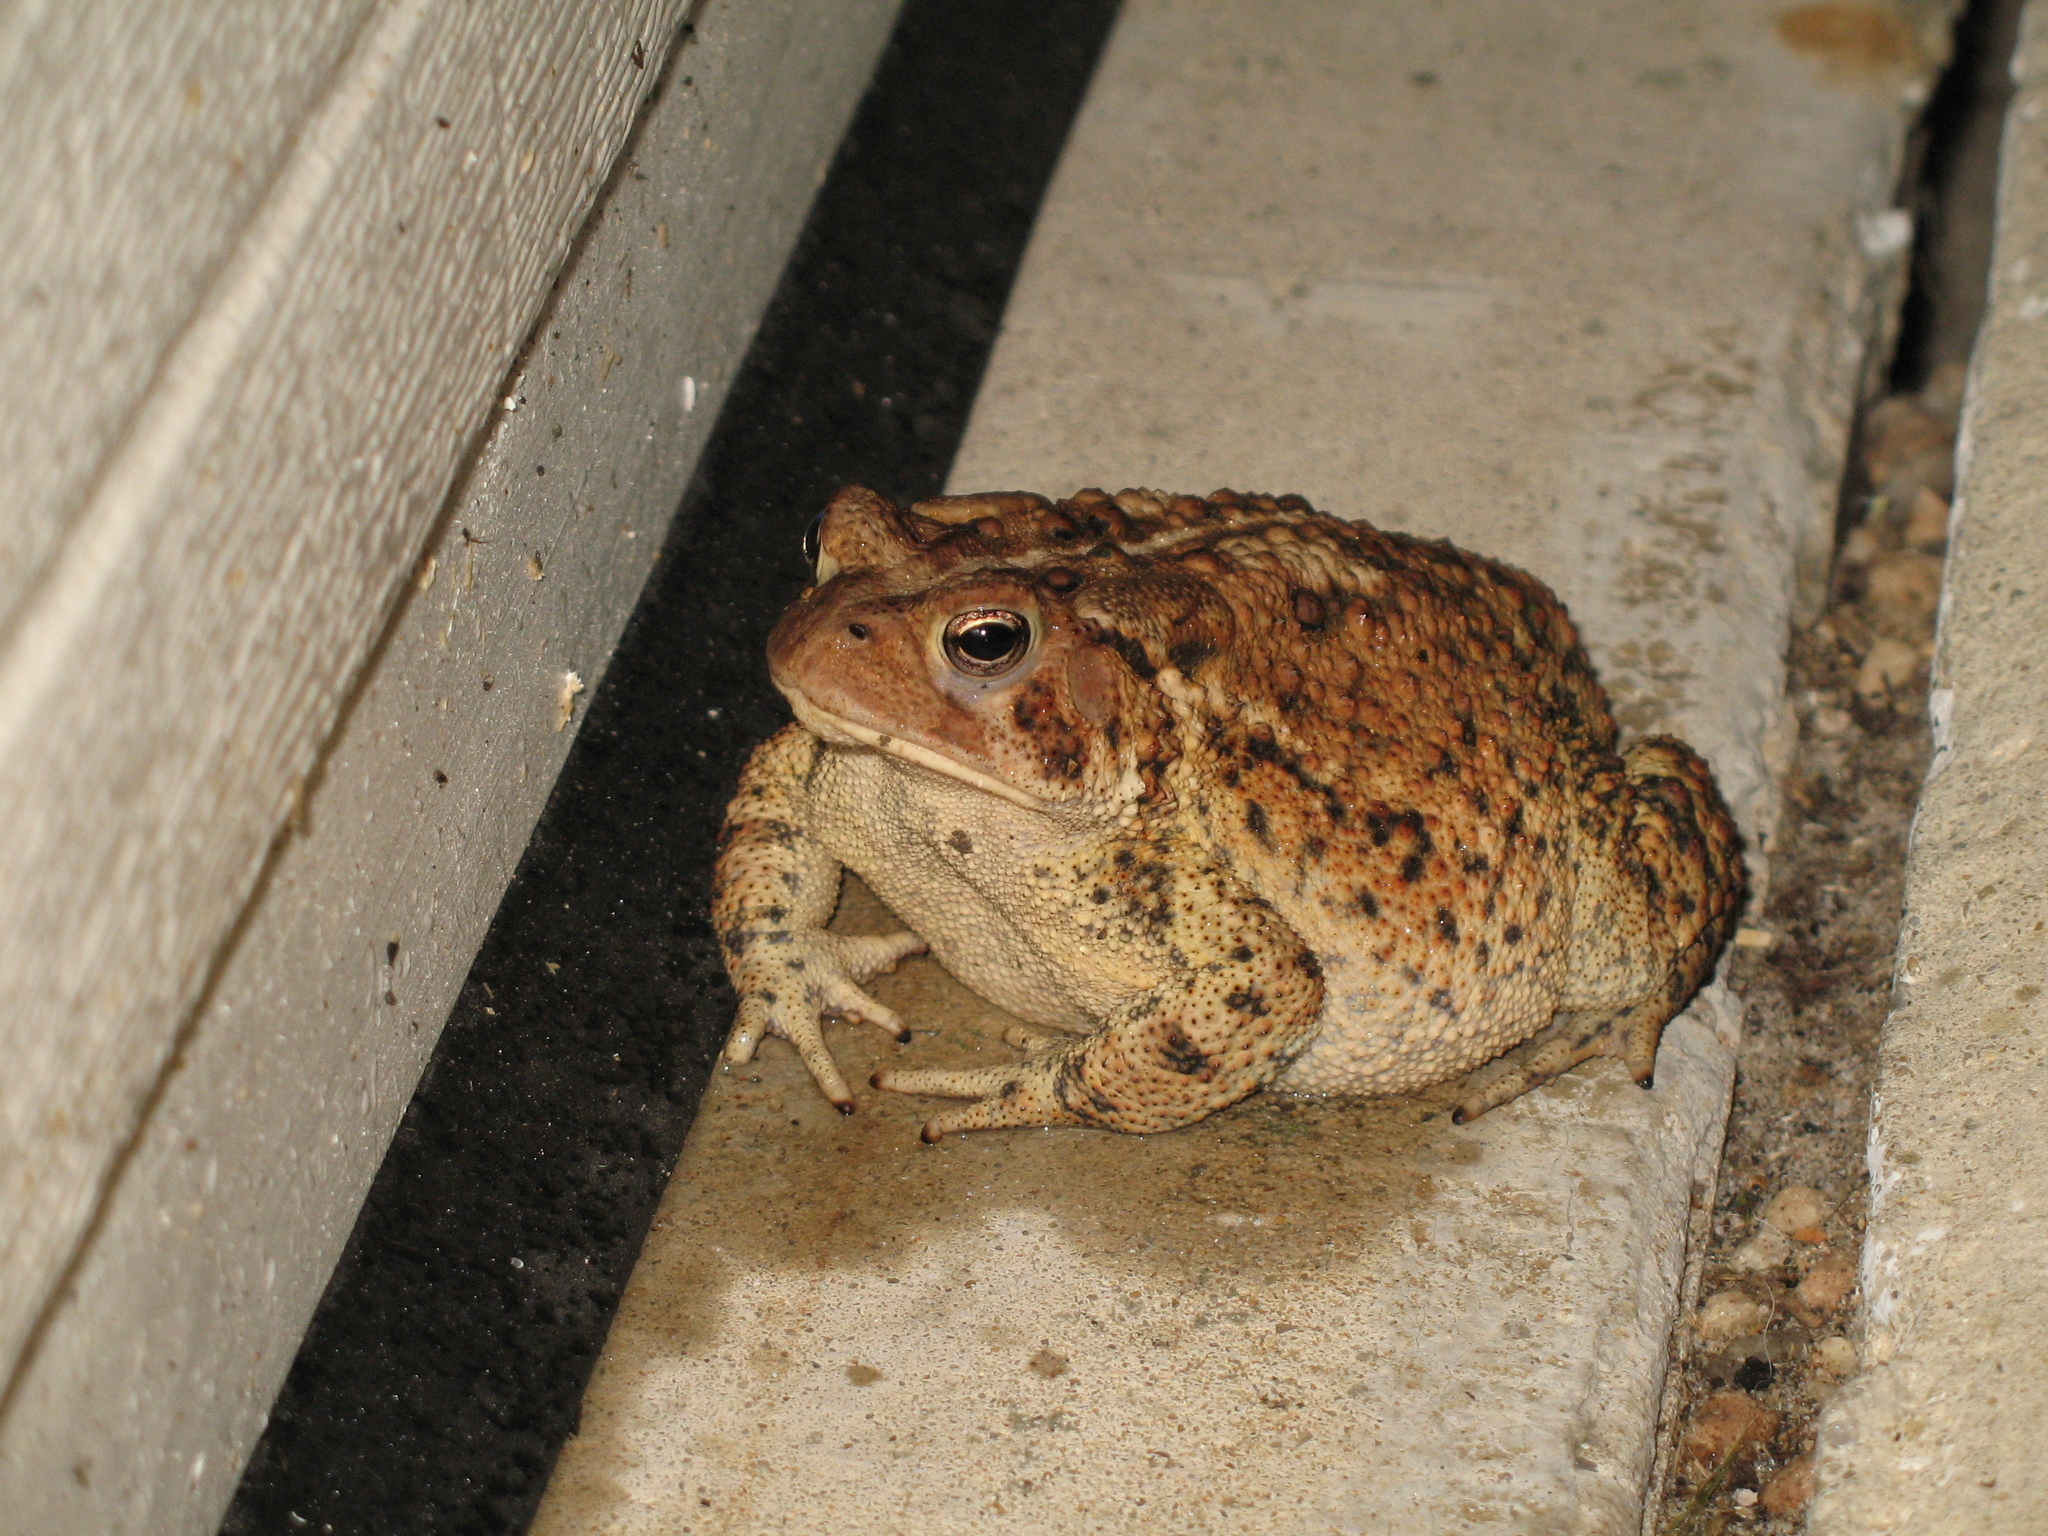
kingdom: Animalia
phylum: Chordata
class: Amphibia
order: Anura
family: Bufonidae
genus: Anaxyrus
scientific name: Anaxyrus americanus
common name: American toad
